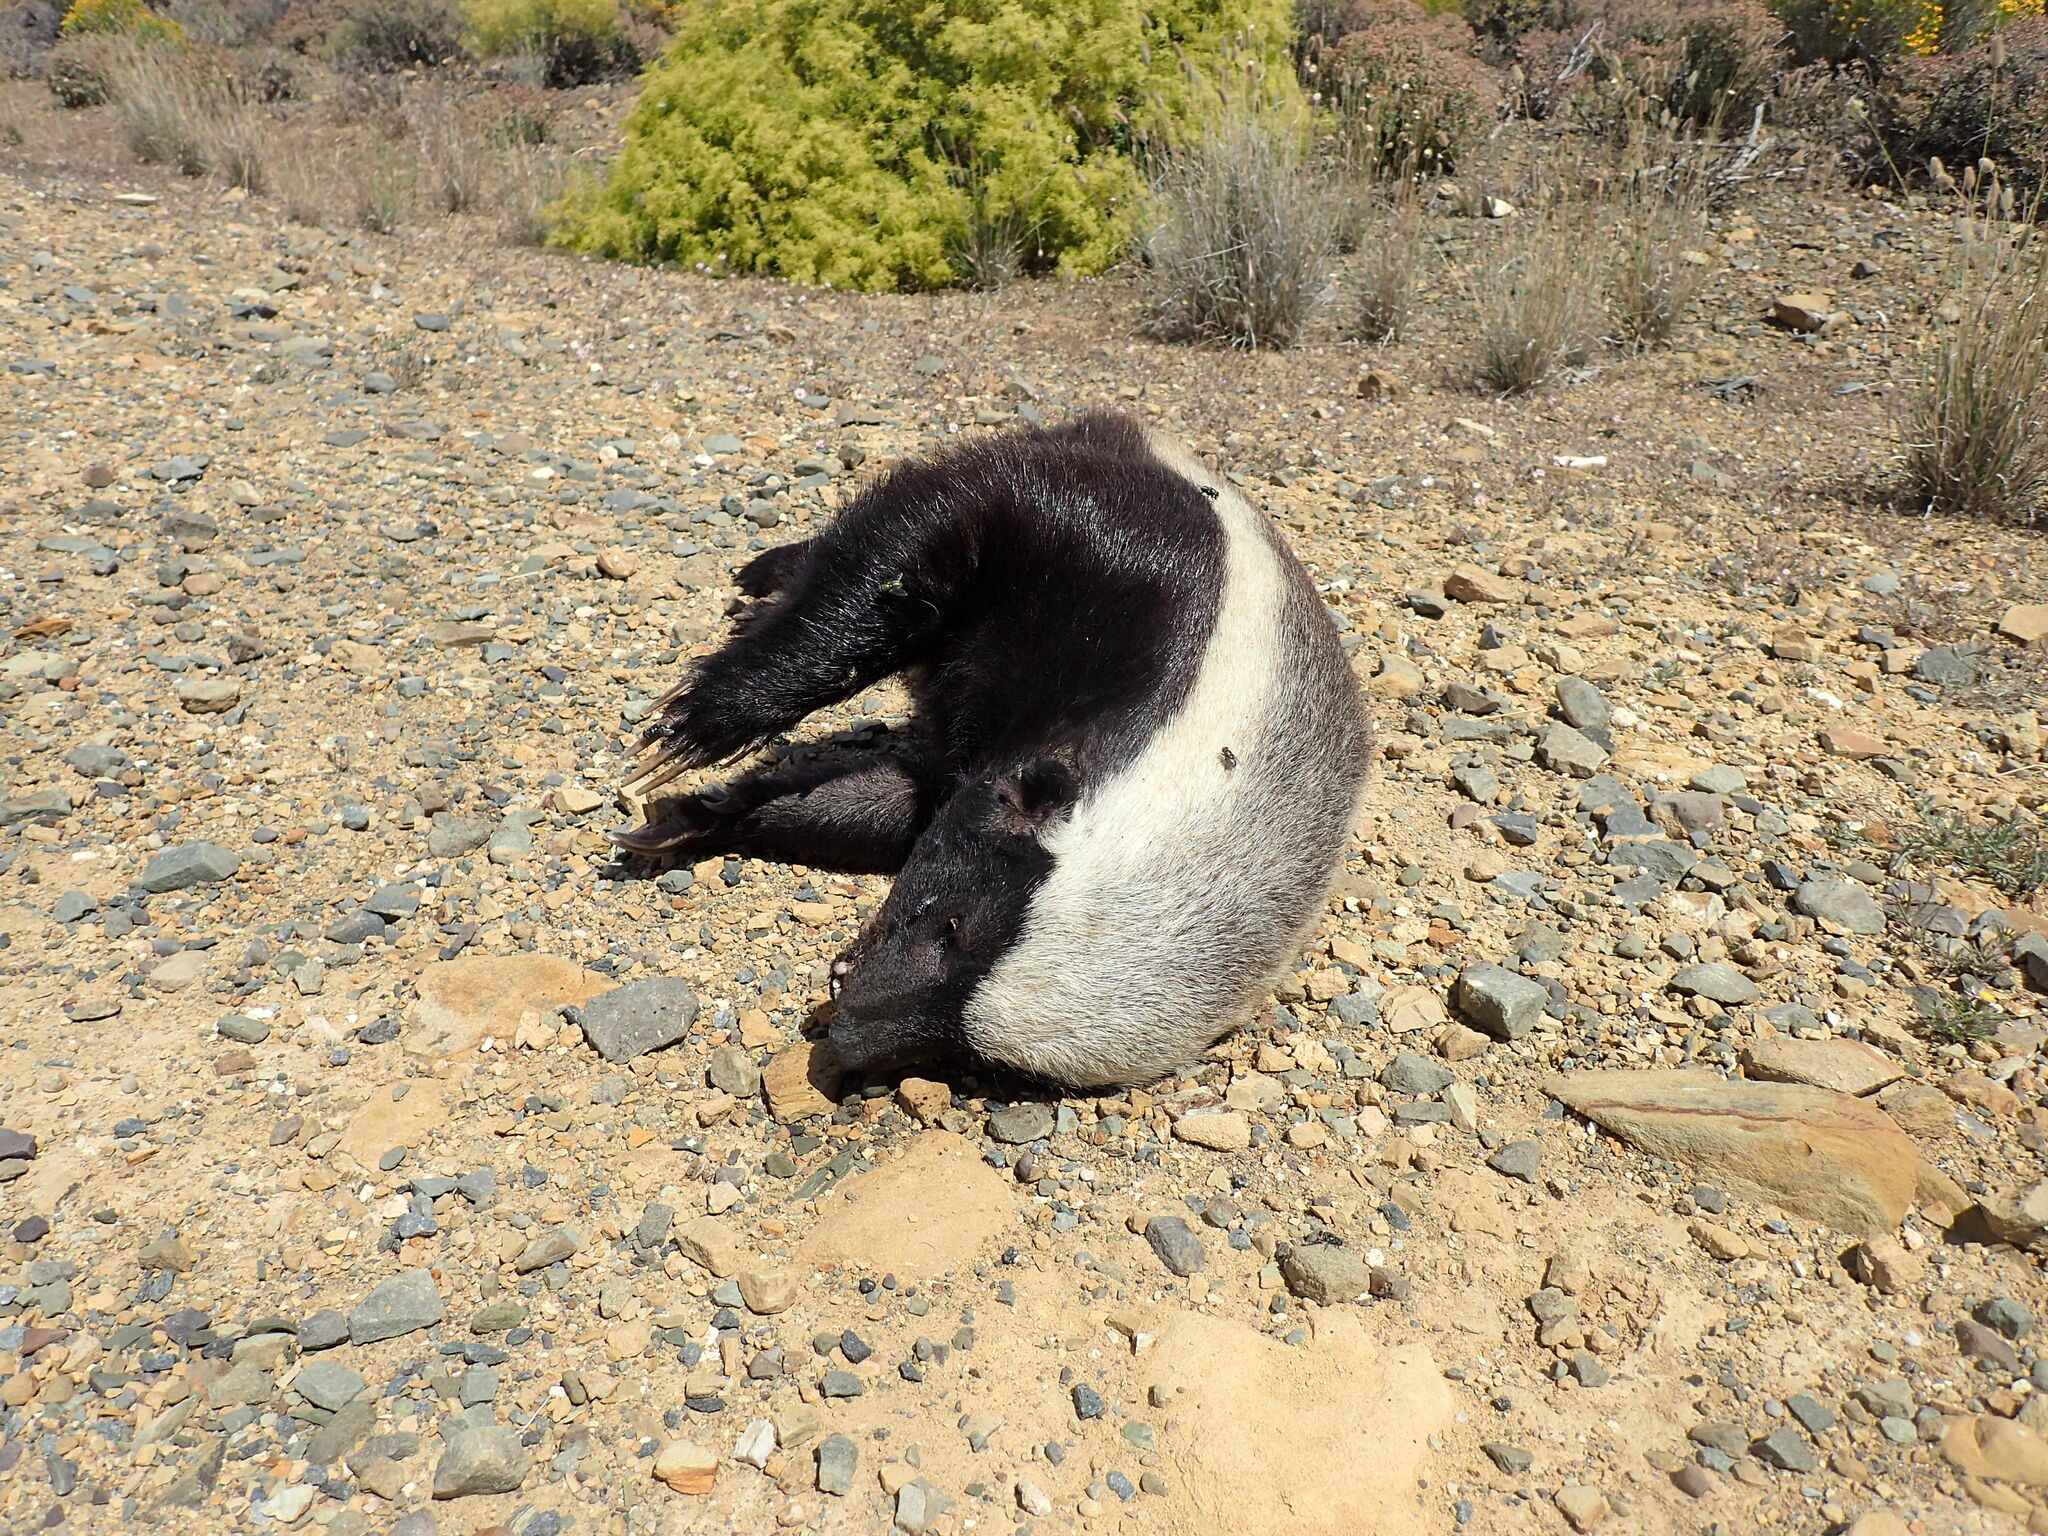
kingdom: Animalia
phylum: Chordata
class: Mammalia
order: Carnivora
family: Mustelidae
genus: Mellivora
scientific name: Mellivora capensis
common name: Honey badger
